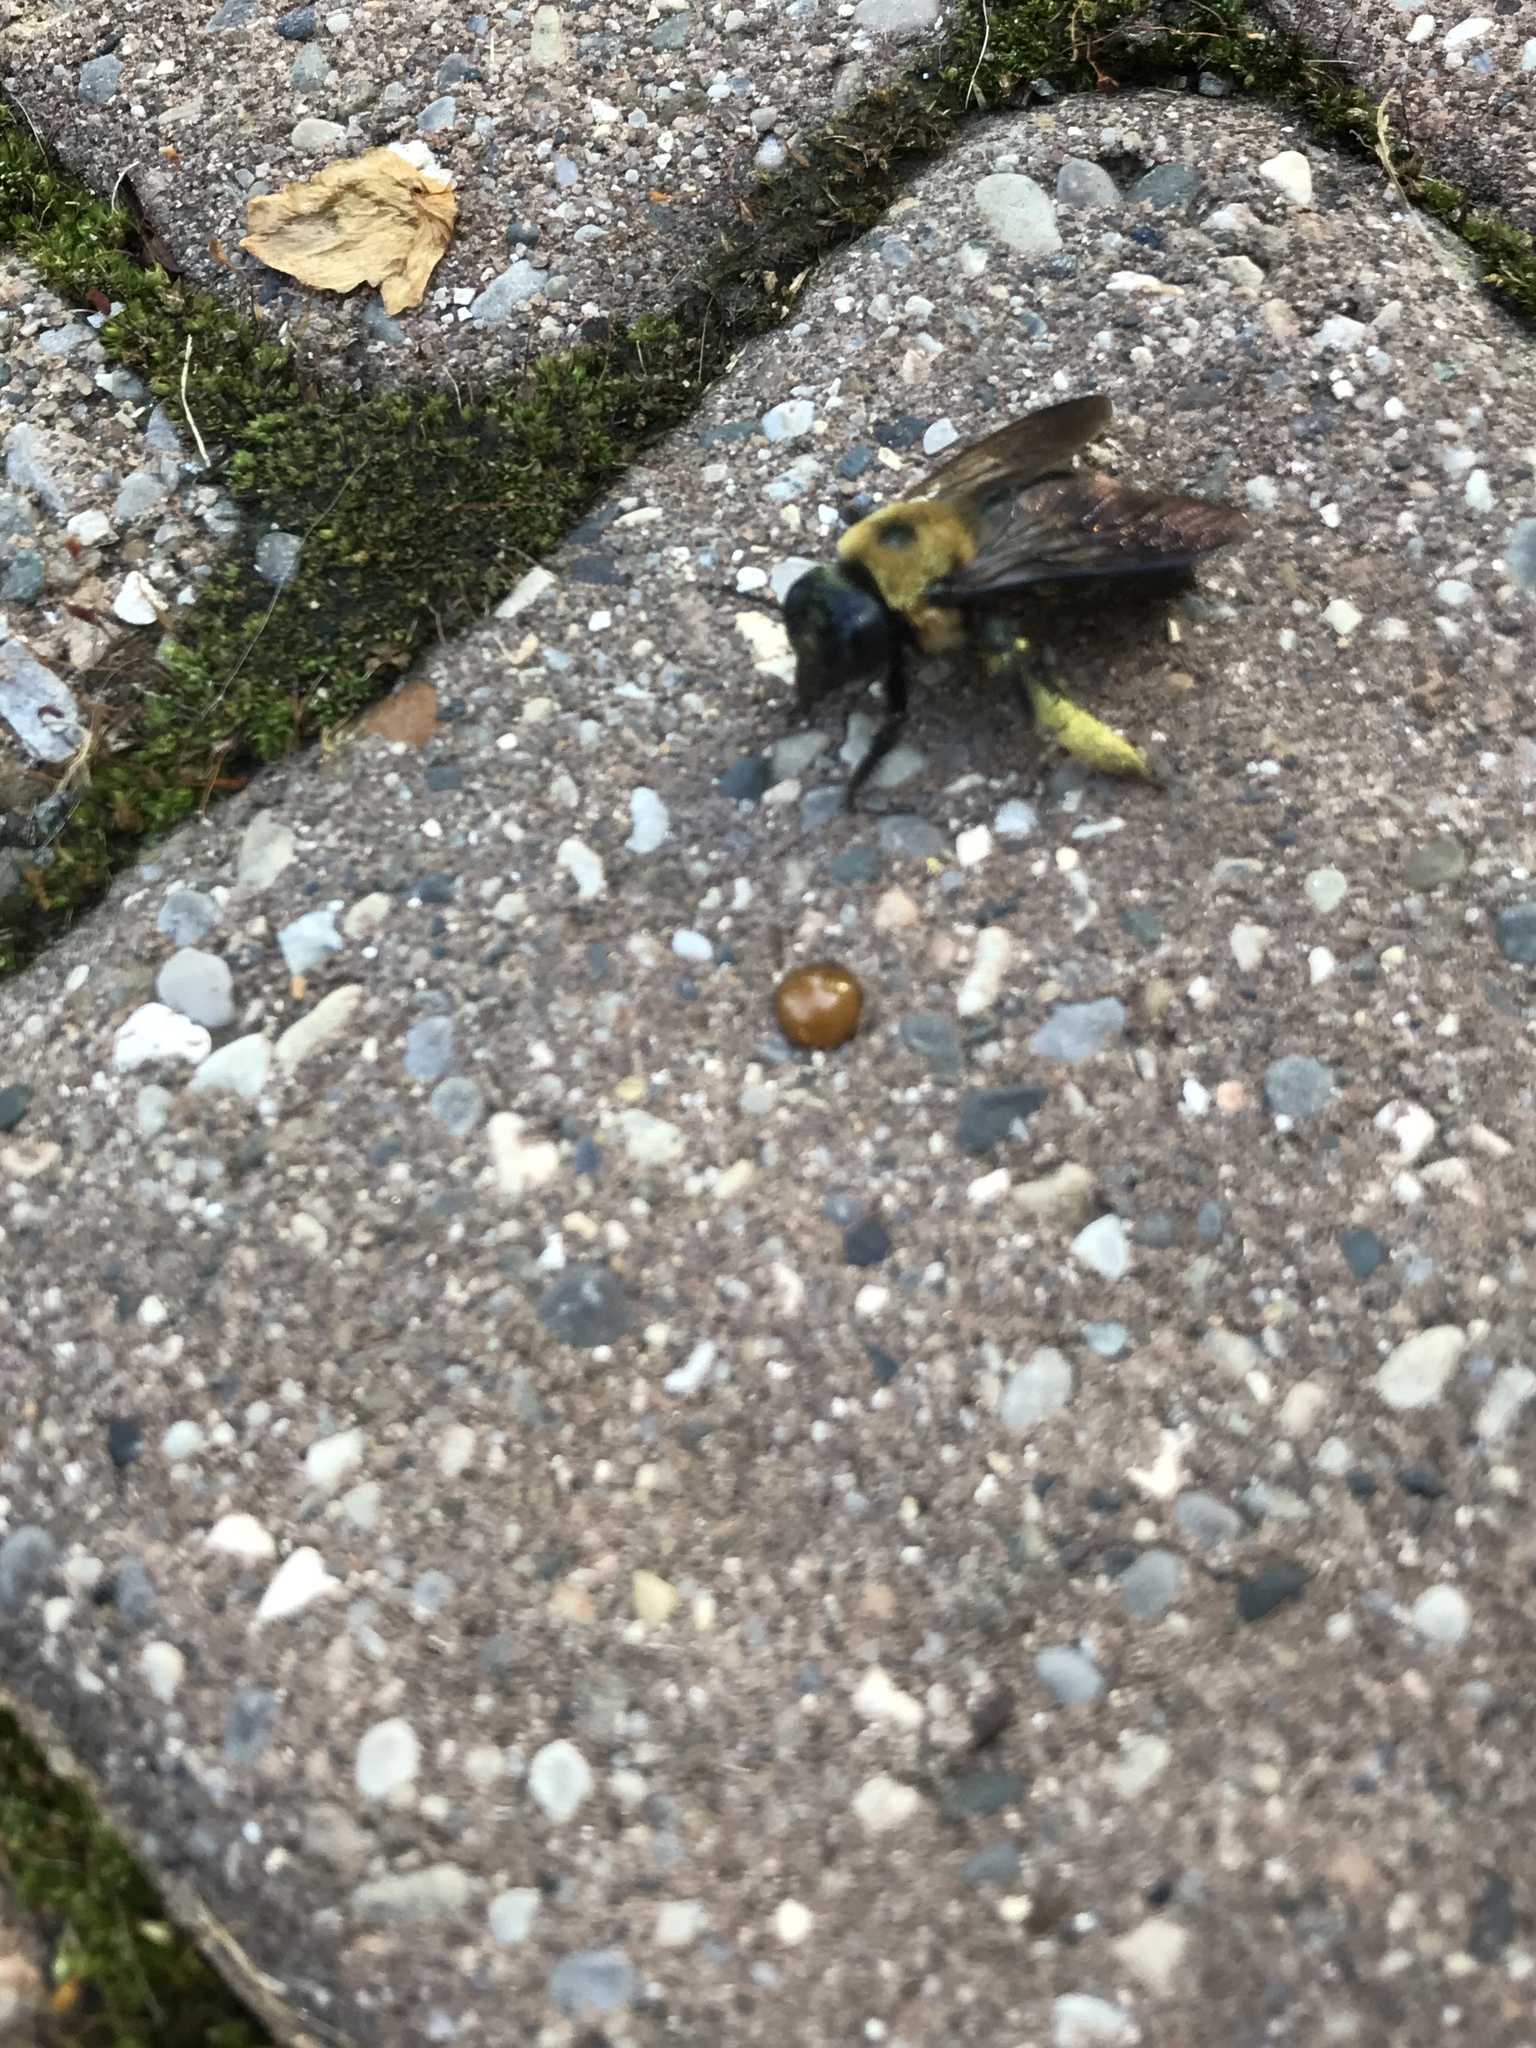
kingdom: Animalia
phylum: Arthropoda
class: Insecta
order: Hymenoptera
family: Apidae
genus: Xylocopa
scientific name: Xylocopa virginica
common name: Carpenter bee
